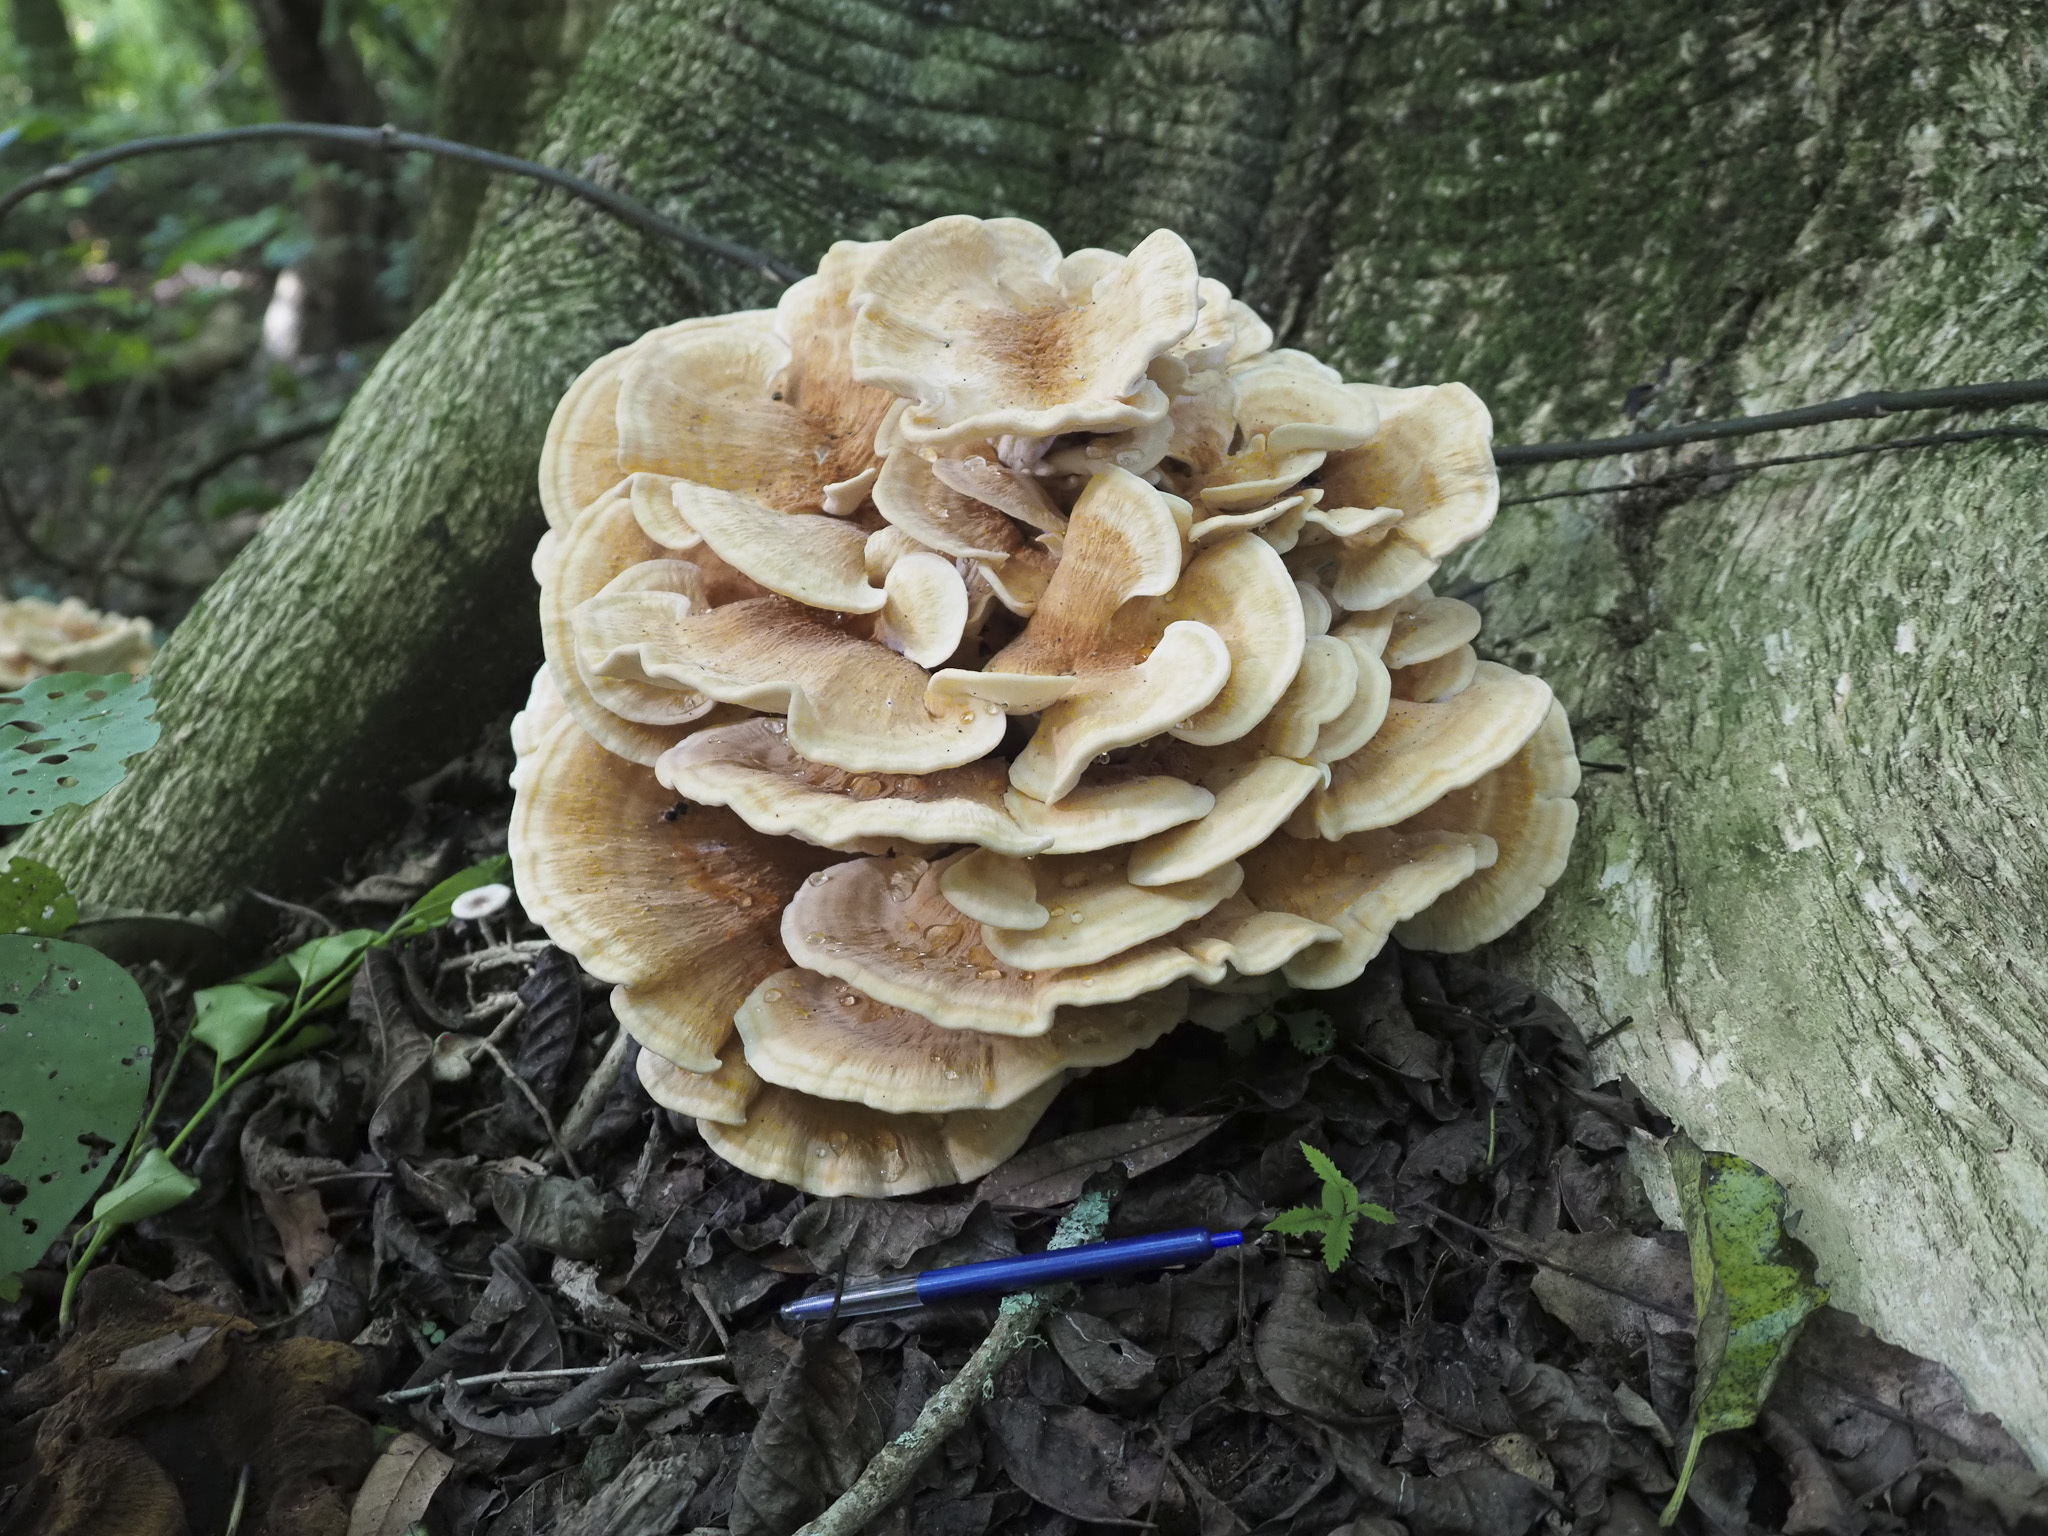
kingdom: Fungi
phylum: Basidiomycota
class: Agaricomycetes
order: Russulales
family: Bondarzewiaceae
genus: Bondarzewia
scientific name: Bondarzewia kirkii
